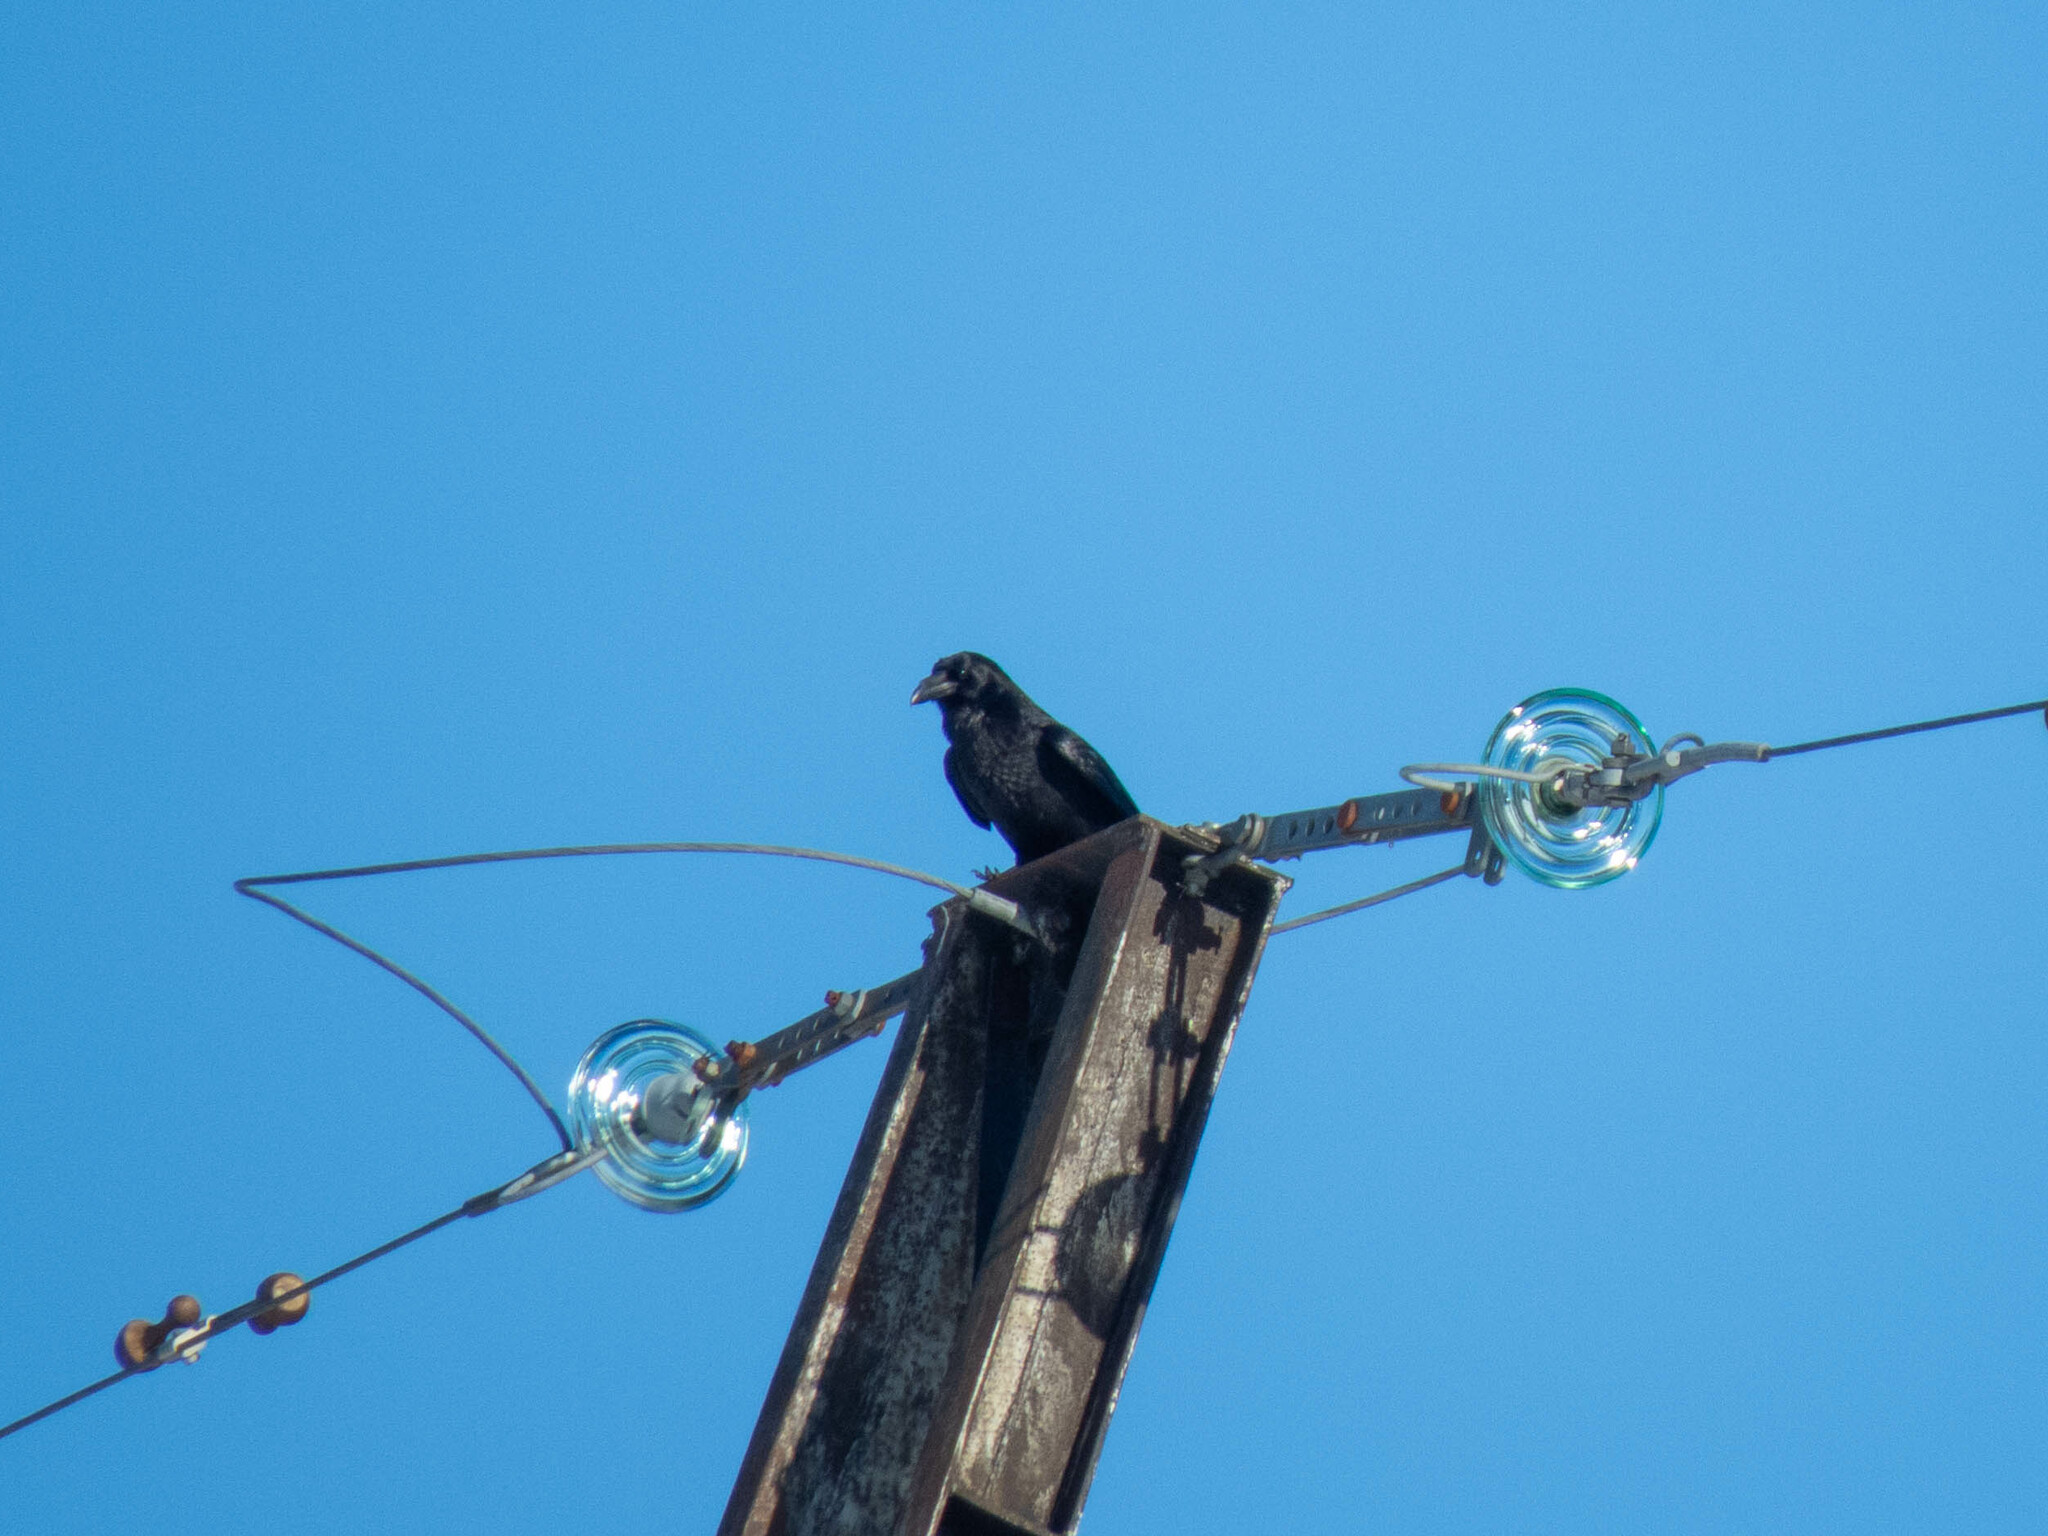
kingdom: Animalia
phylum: Chordata
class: Aves
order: Passeriformes
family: Corvidae
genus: Corvus
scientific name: Corvus corax
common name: Common raven
